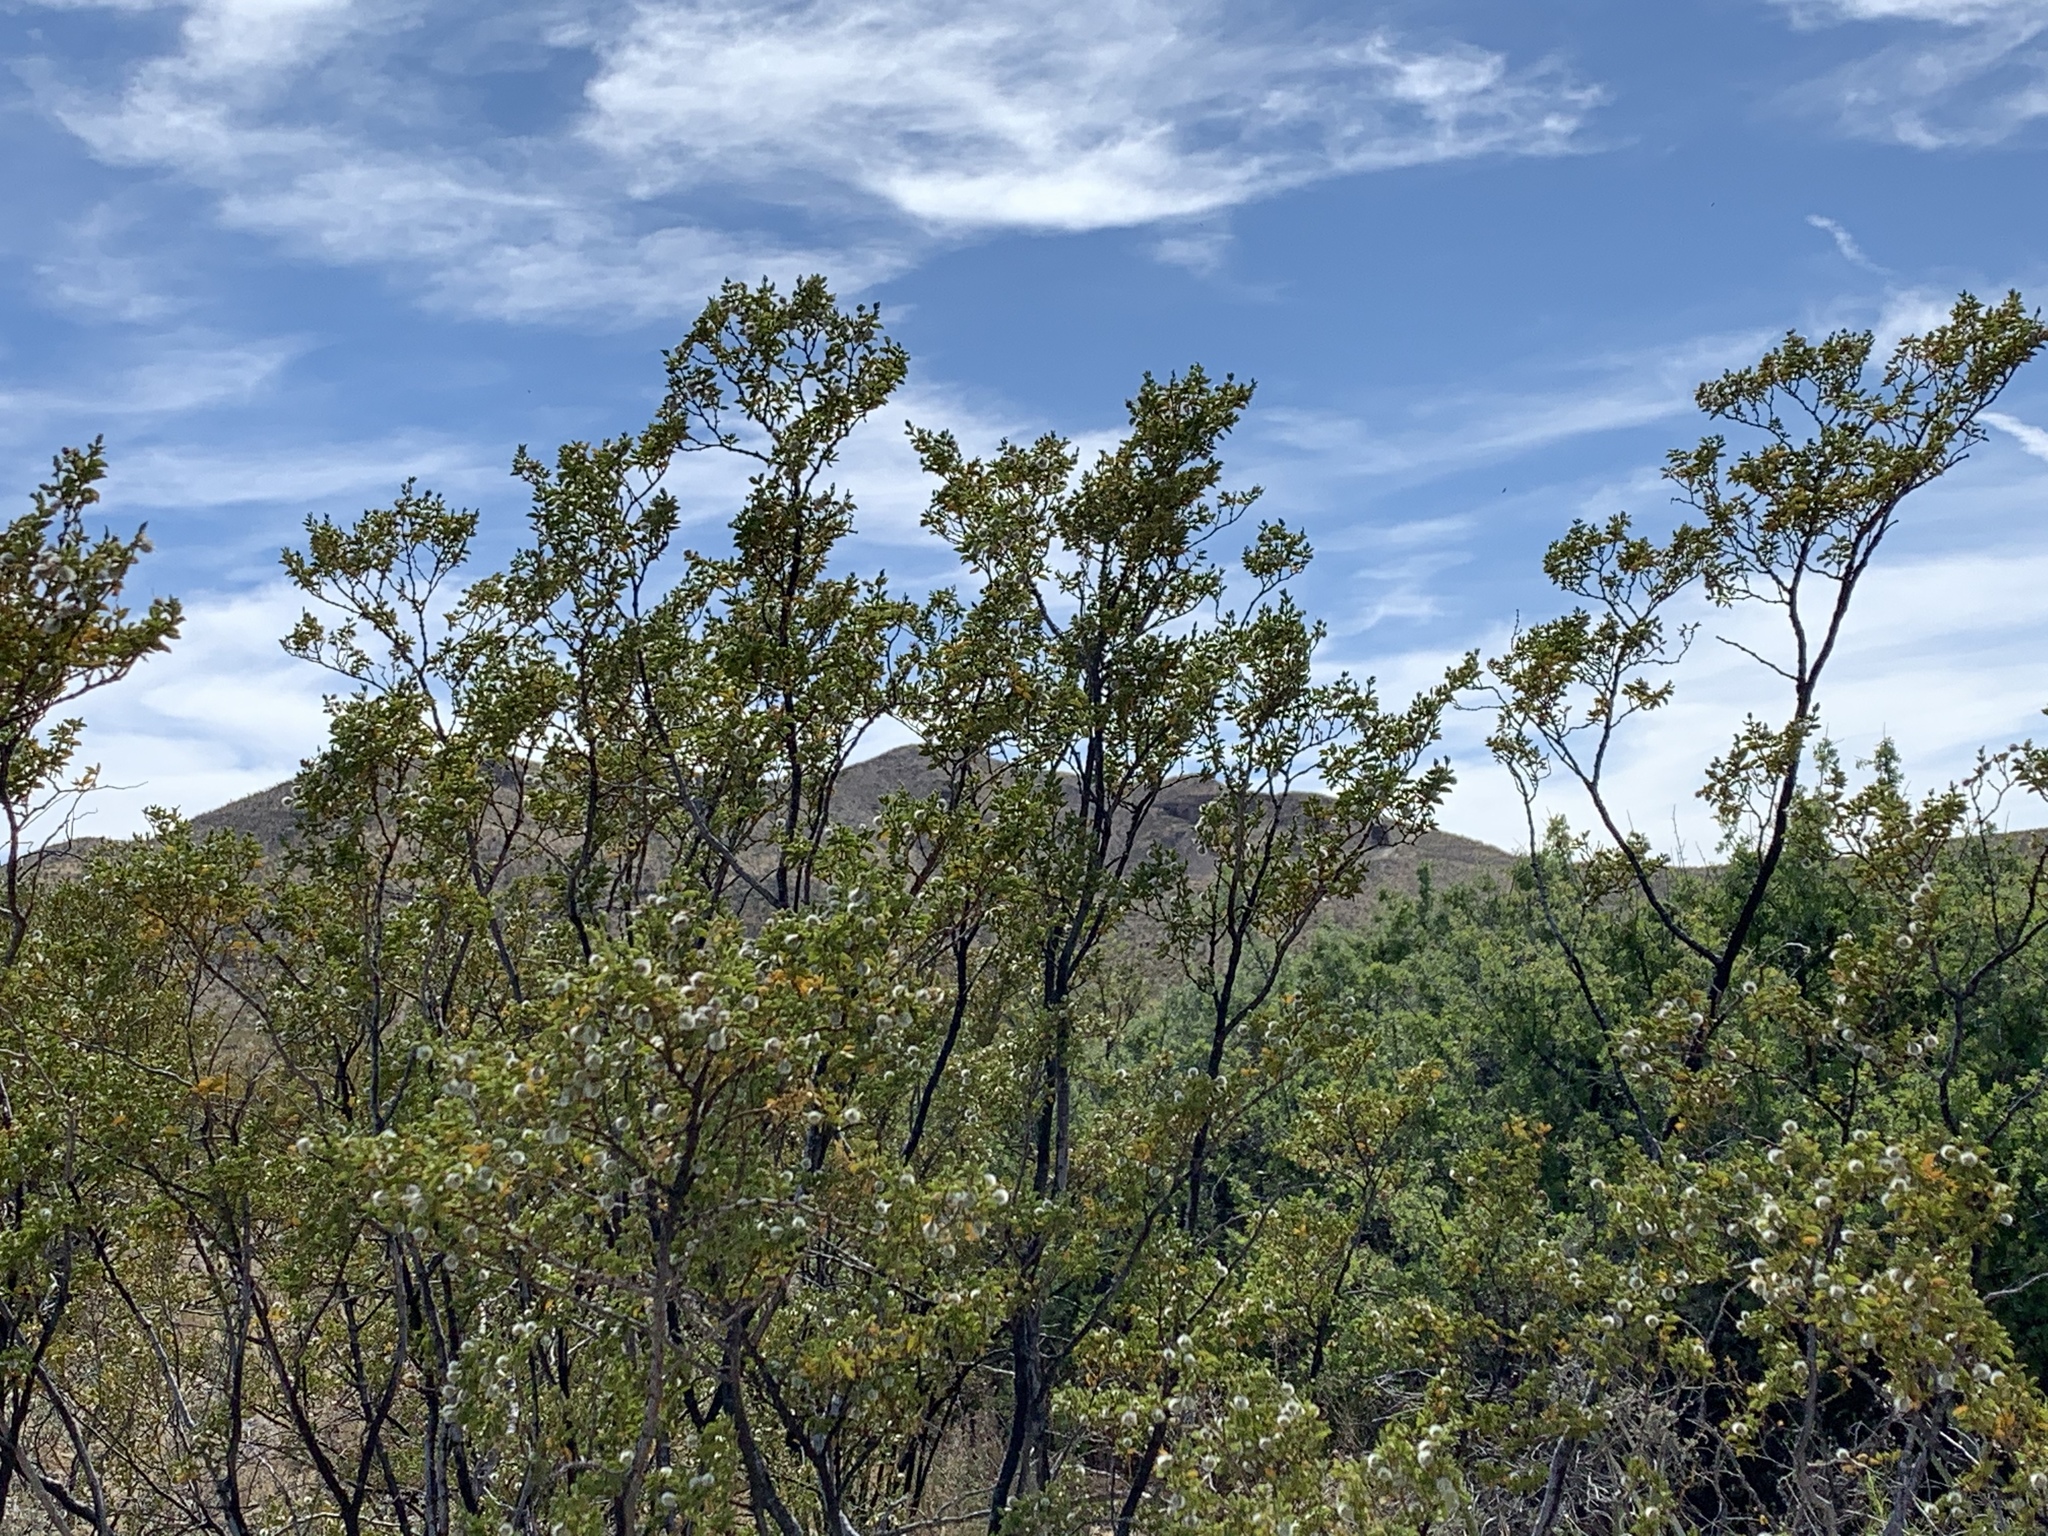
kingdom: Plantae
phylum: Tracheophyta
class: Magnoliopsida
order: Zygophyllales
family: Zygophyllaceae
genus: Larrea
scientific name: Larrea tridentata
